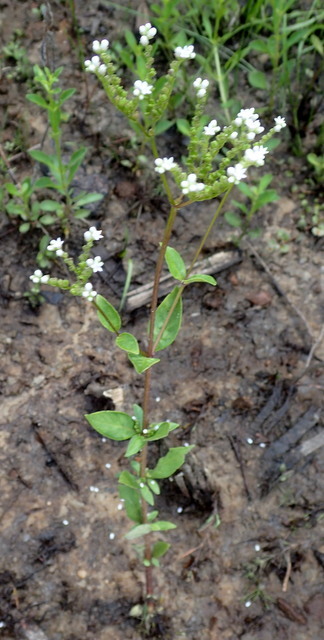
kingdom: Plantae
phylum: Tracheophyta
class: Magnoliopsida
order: Gentianales
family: Loganiaceae
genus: Mitreola
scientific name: Mitreola petiolata
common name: Lax hornpod
